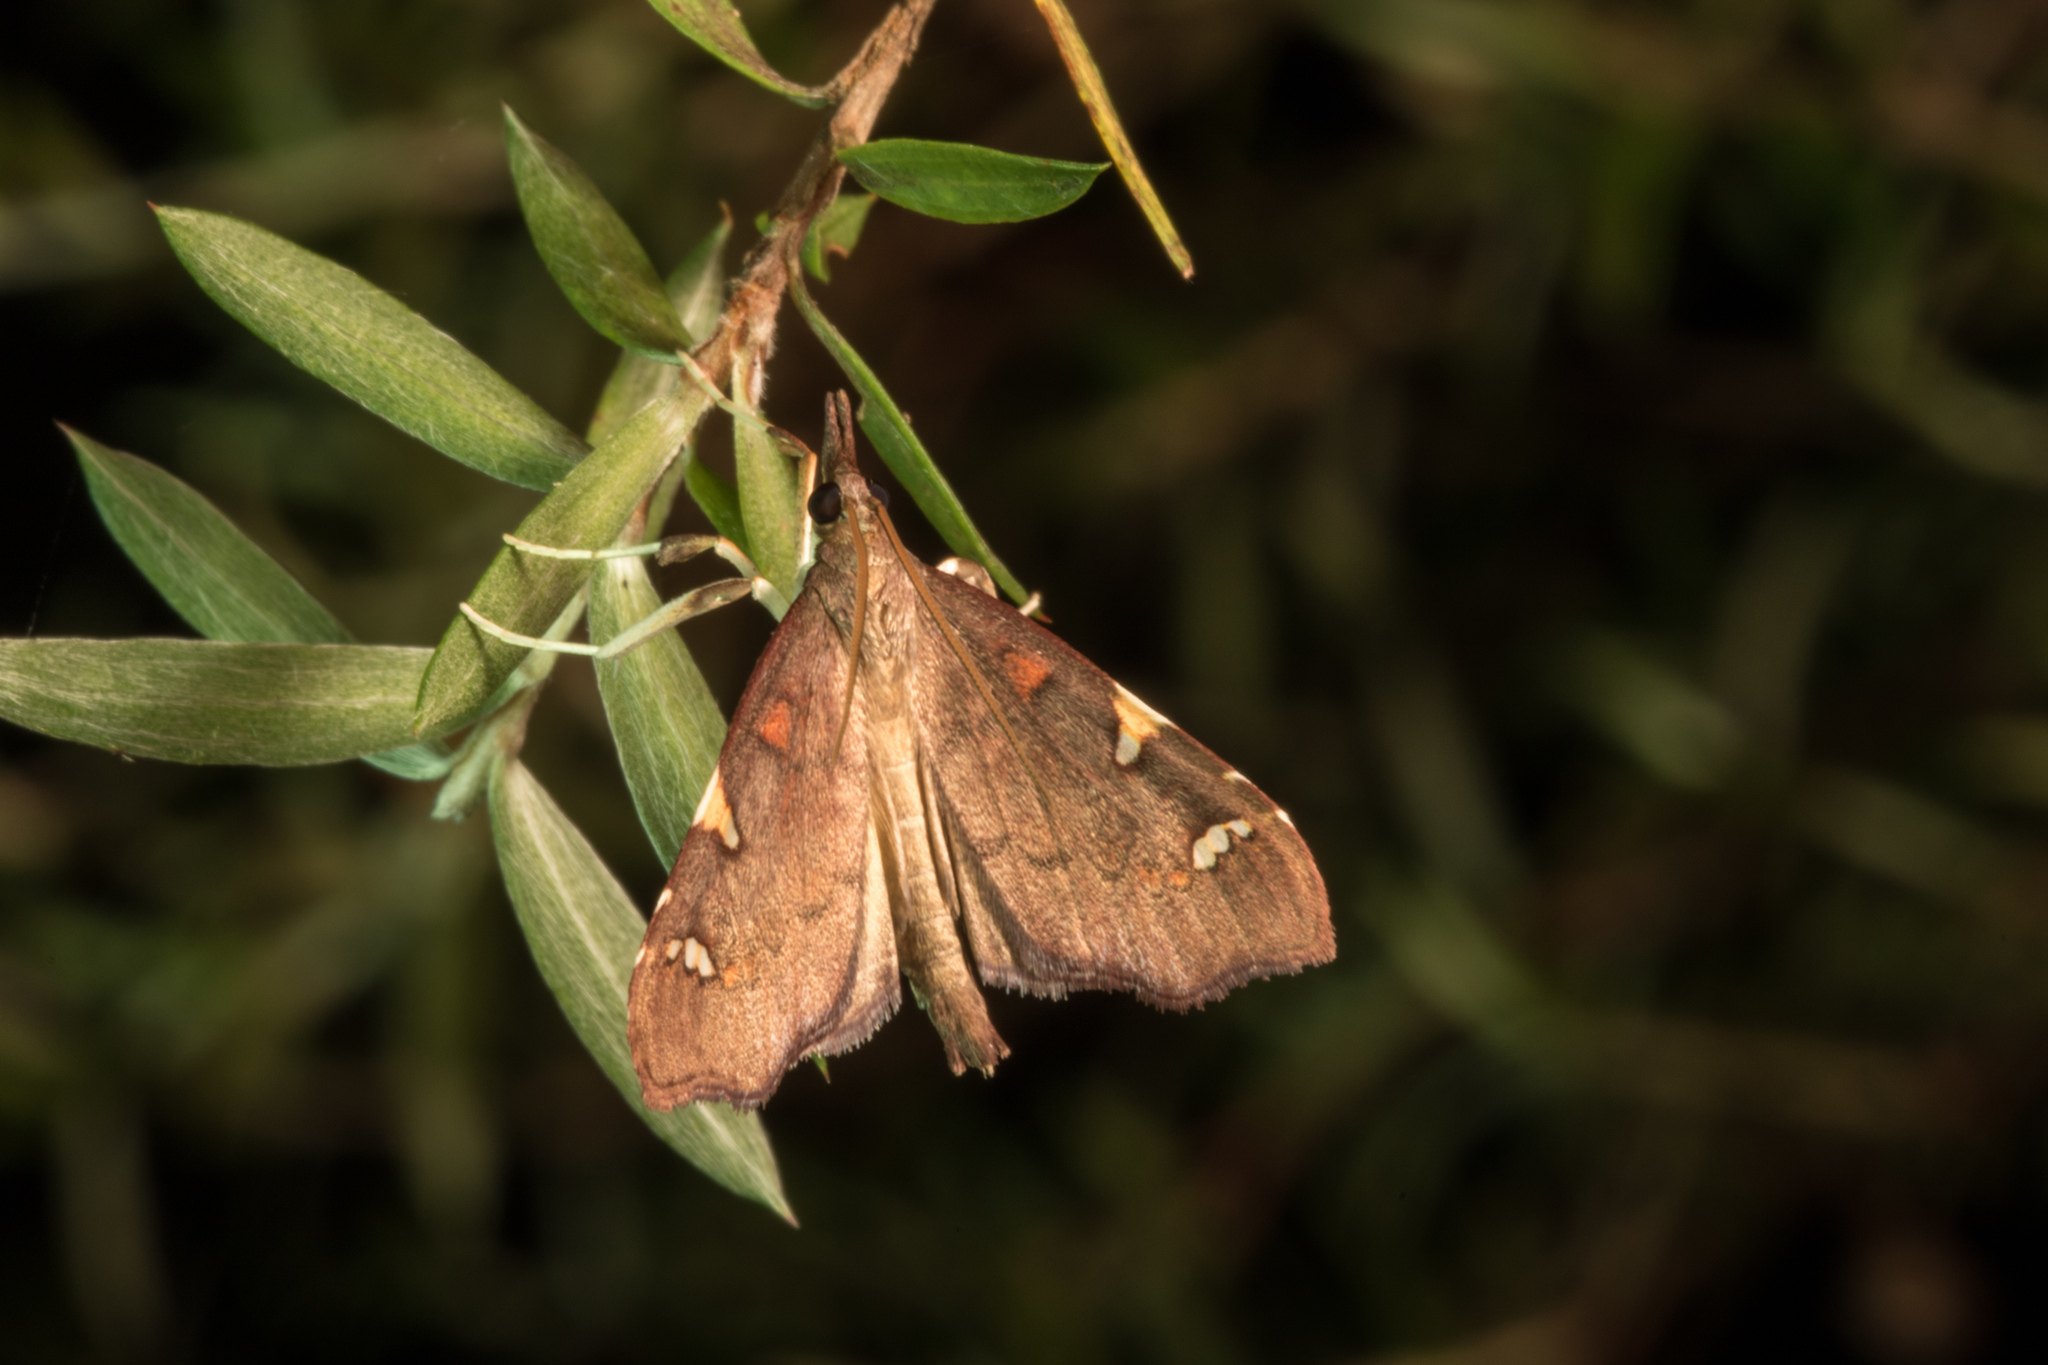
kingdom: Animalia
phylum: Arthropoda
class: Insecta
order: Lepidoptera
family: Crambidae
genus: Deana
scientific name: Deana hybreasalis
